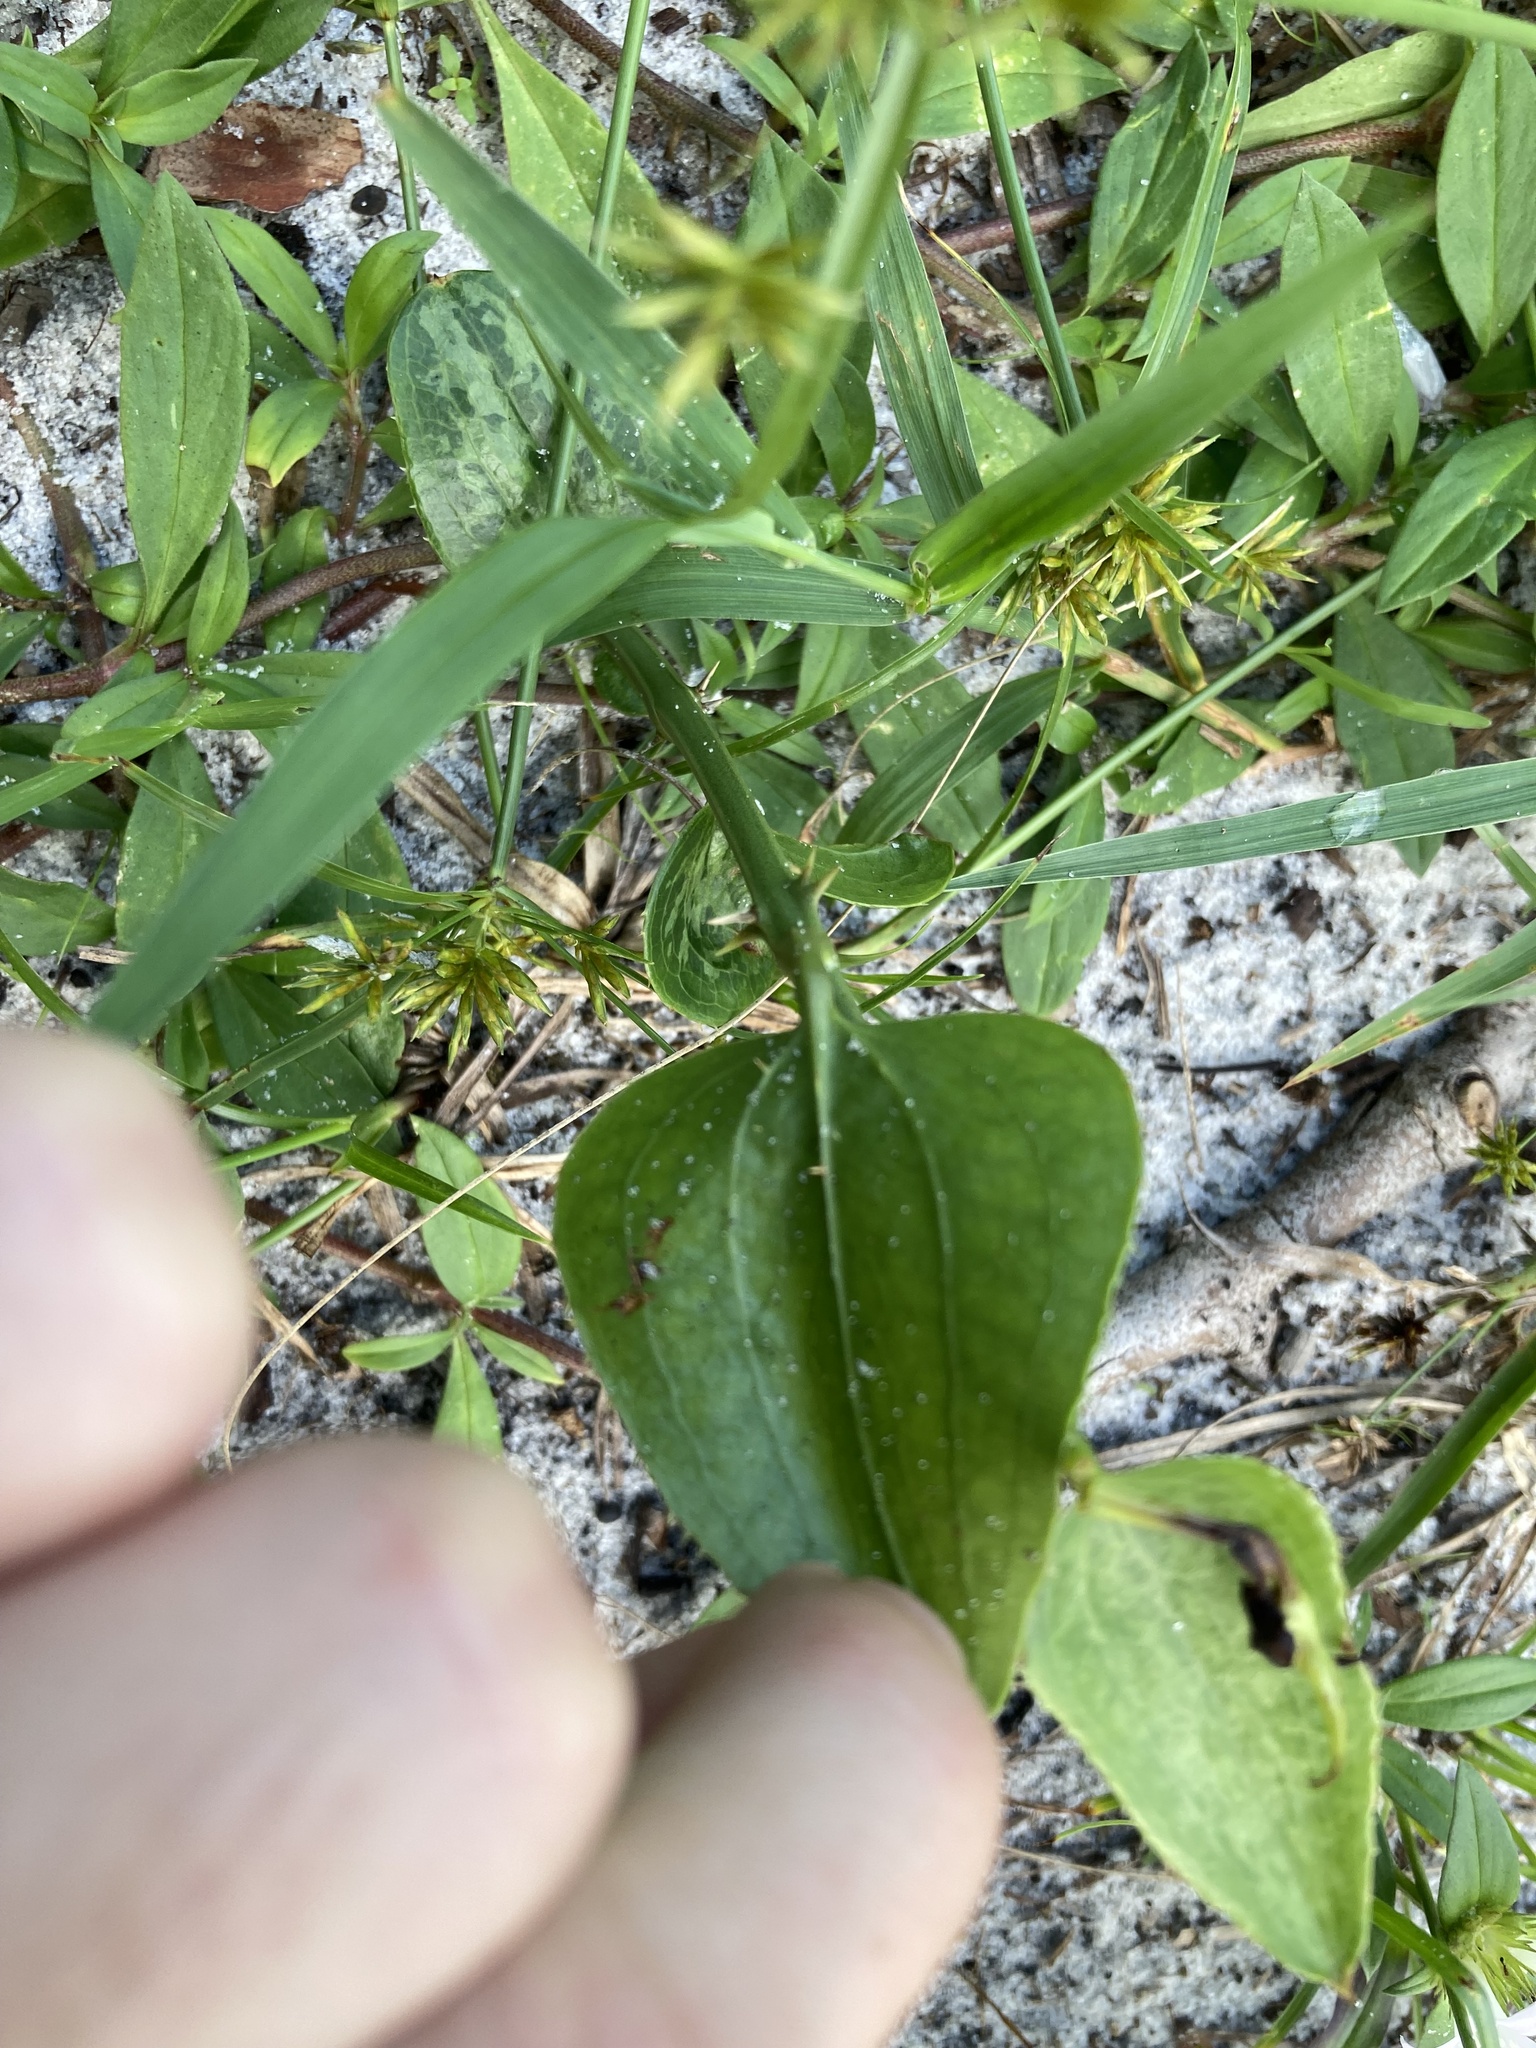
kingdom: Plantae
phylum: Tracheophyta
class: Liliopsida
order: Liliales
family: Smilacaceae
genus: Smilax
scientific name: Smilax bona-nox
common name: Catbrier
